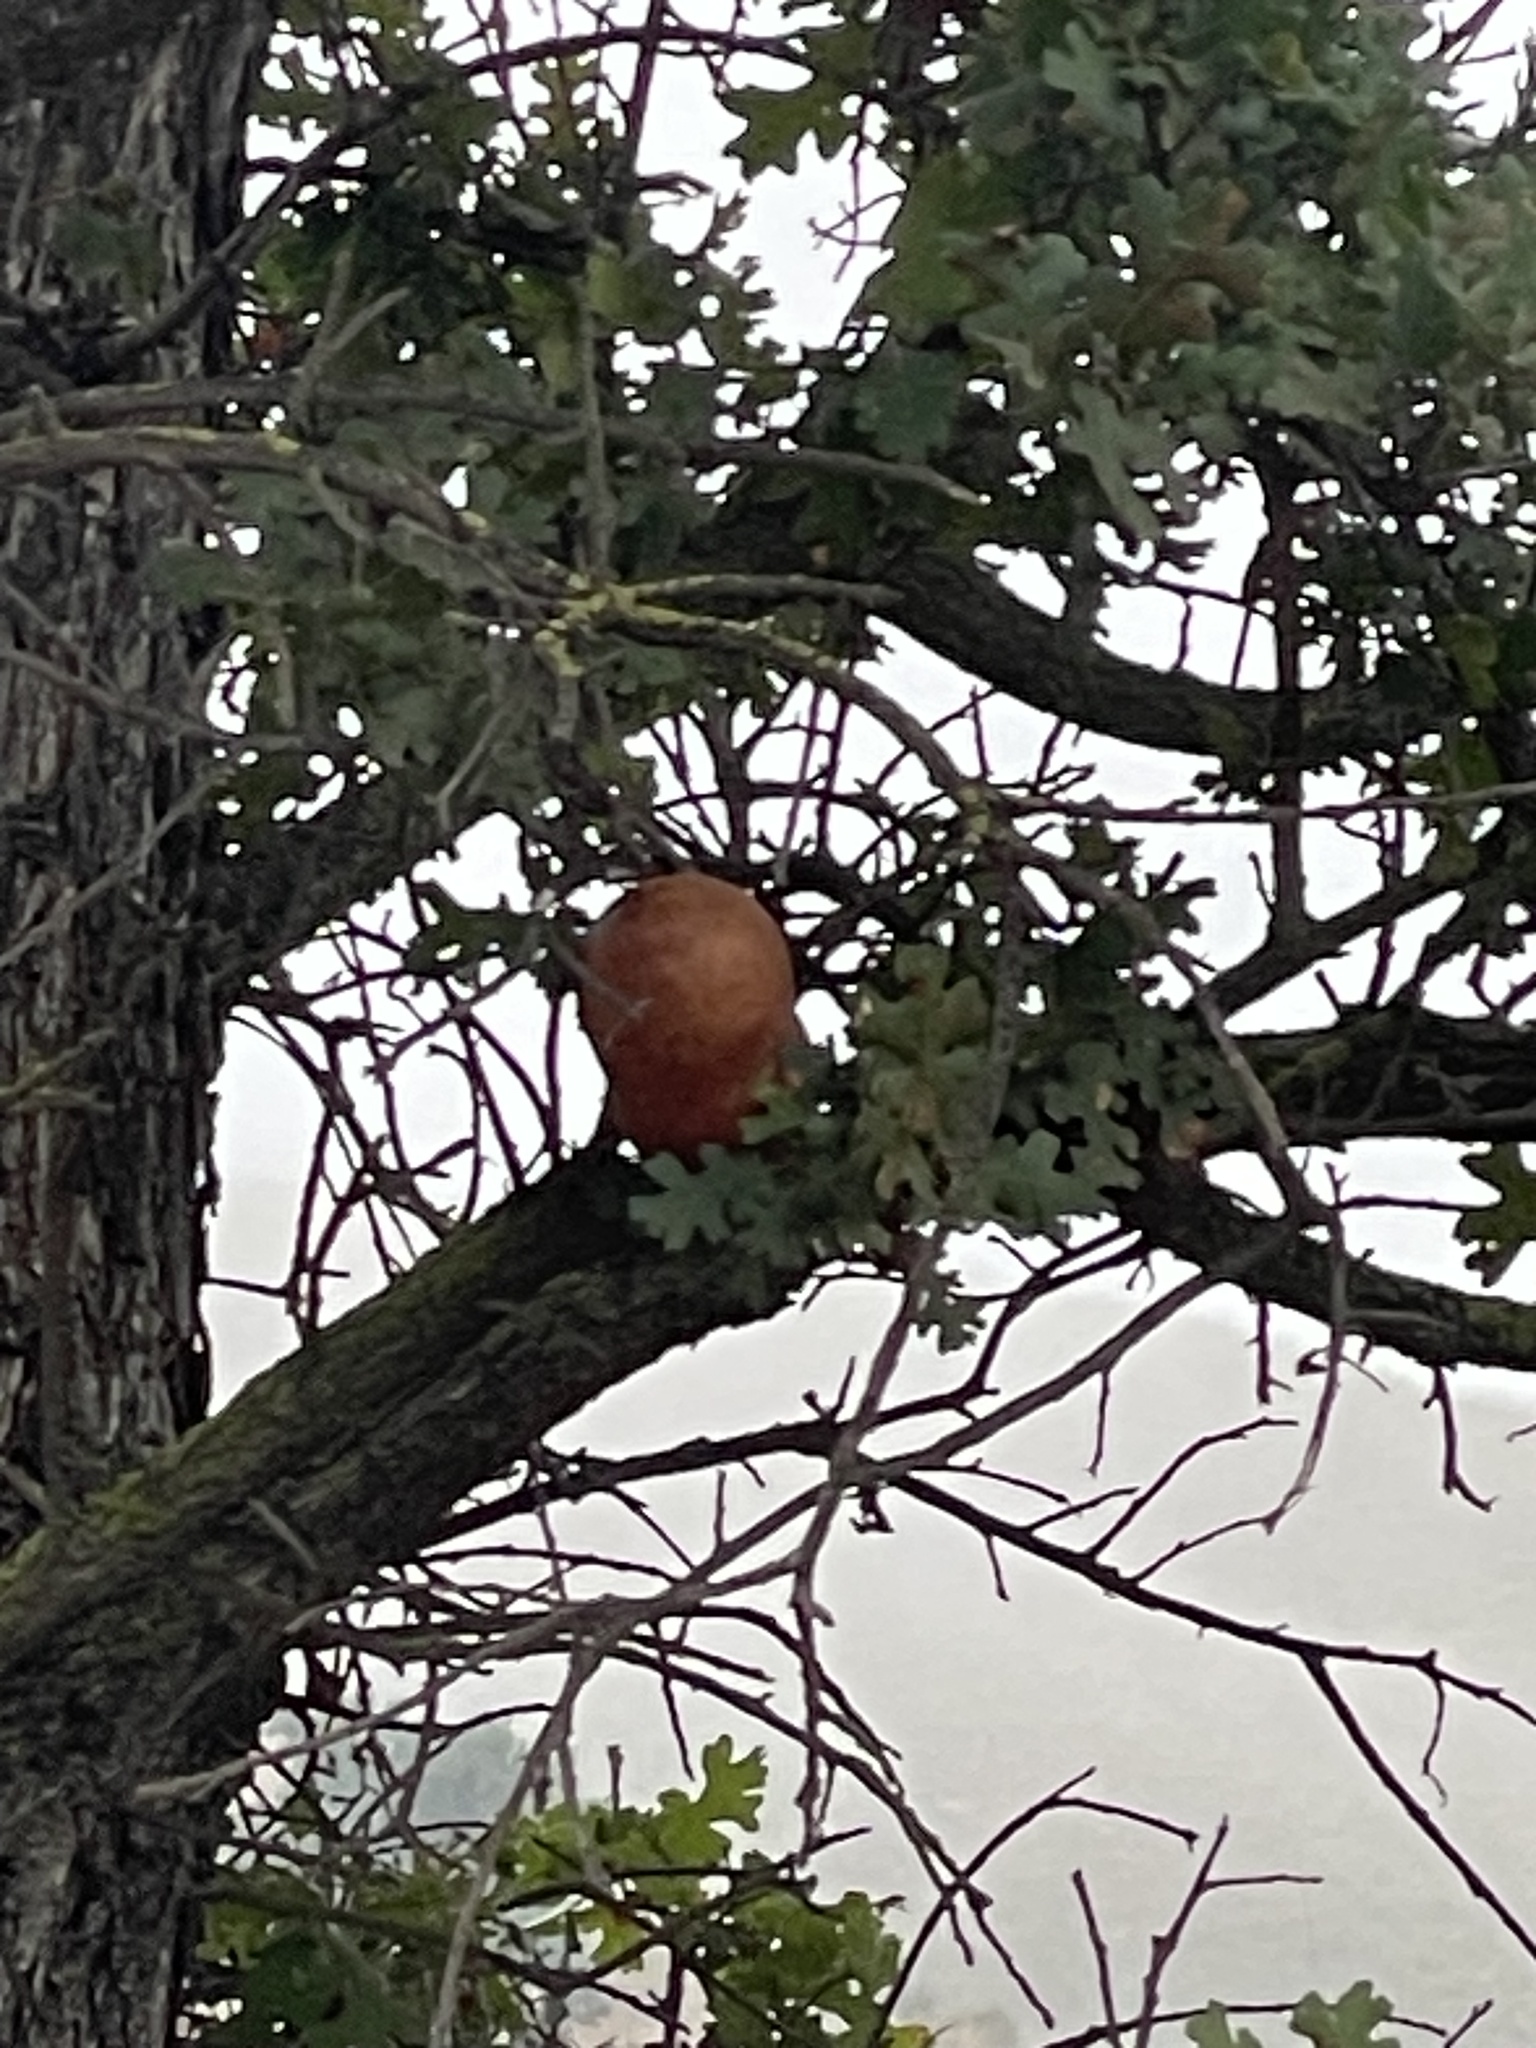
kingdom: Animalia
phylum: Arthropoda
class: Insecta
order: Hymenoptera
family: Cynipidae
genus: Andricus
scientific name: Andricus quercuscalifornicus
